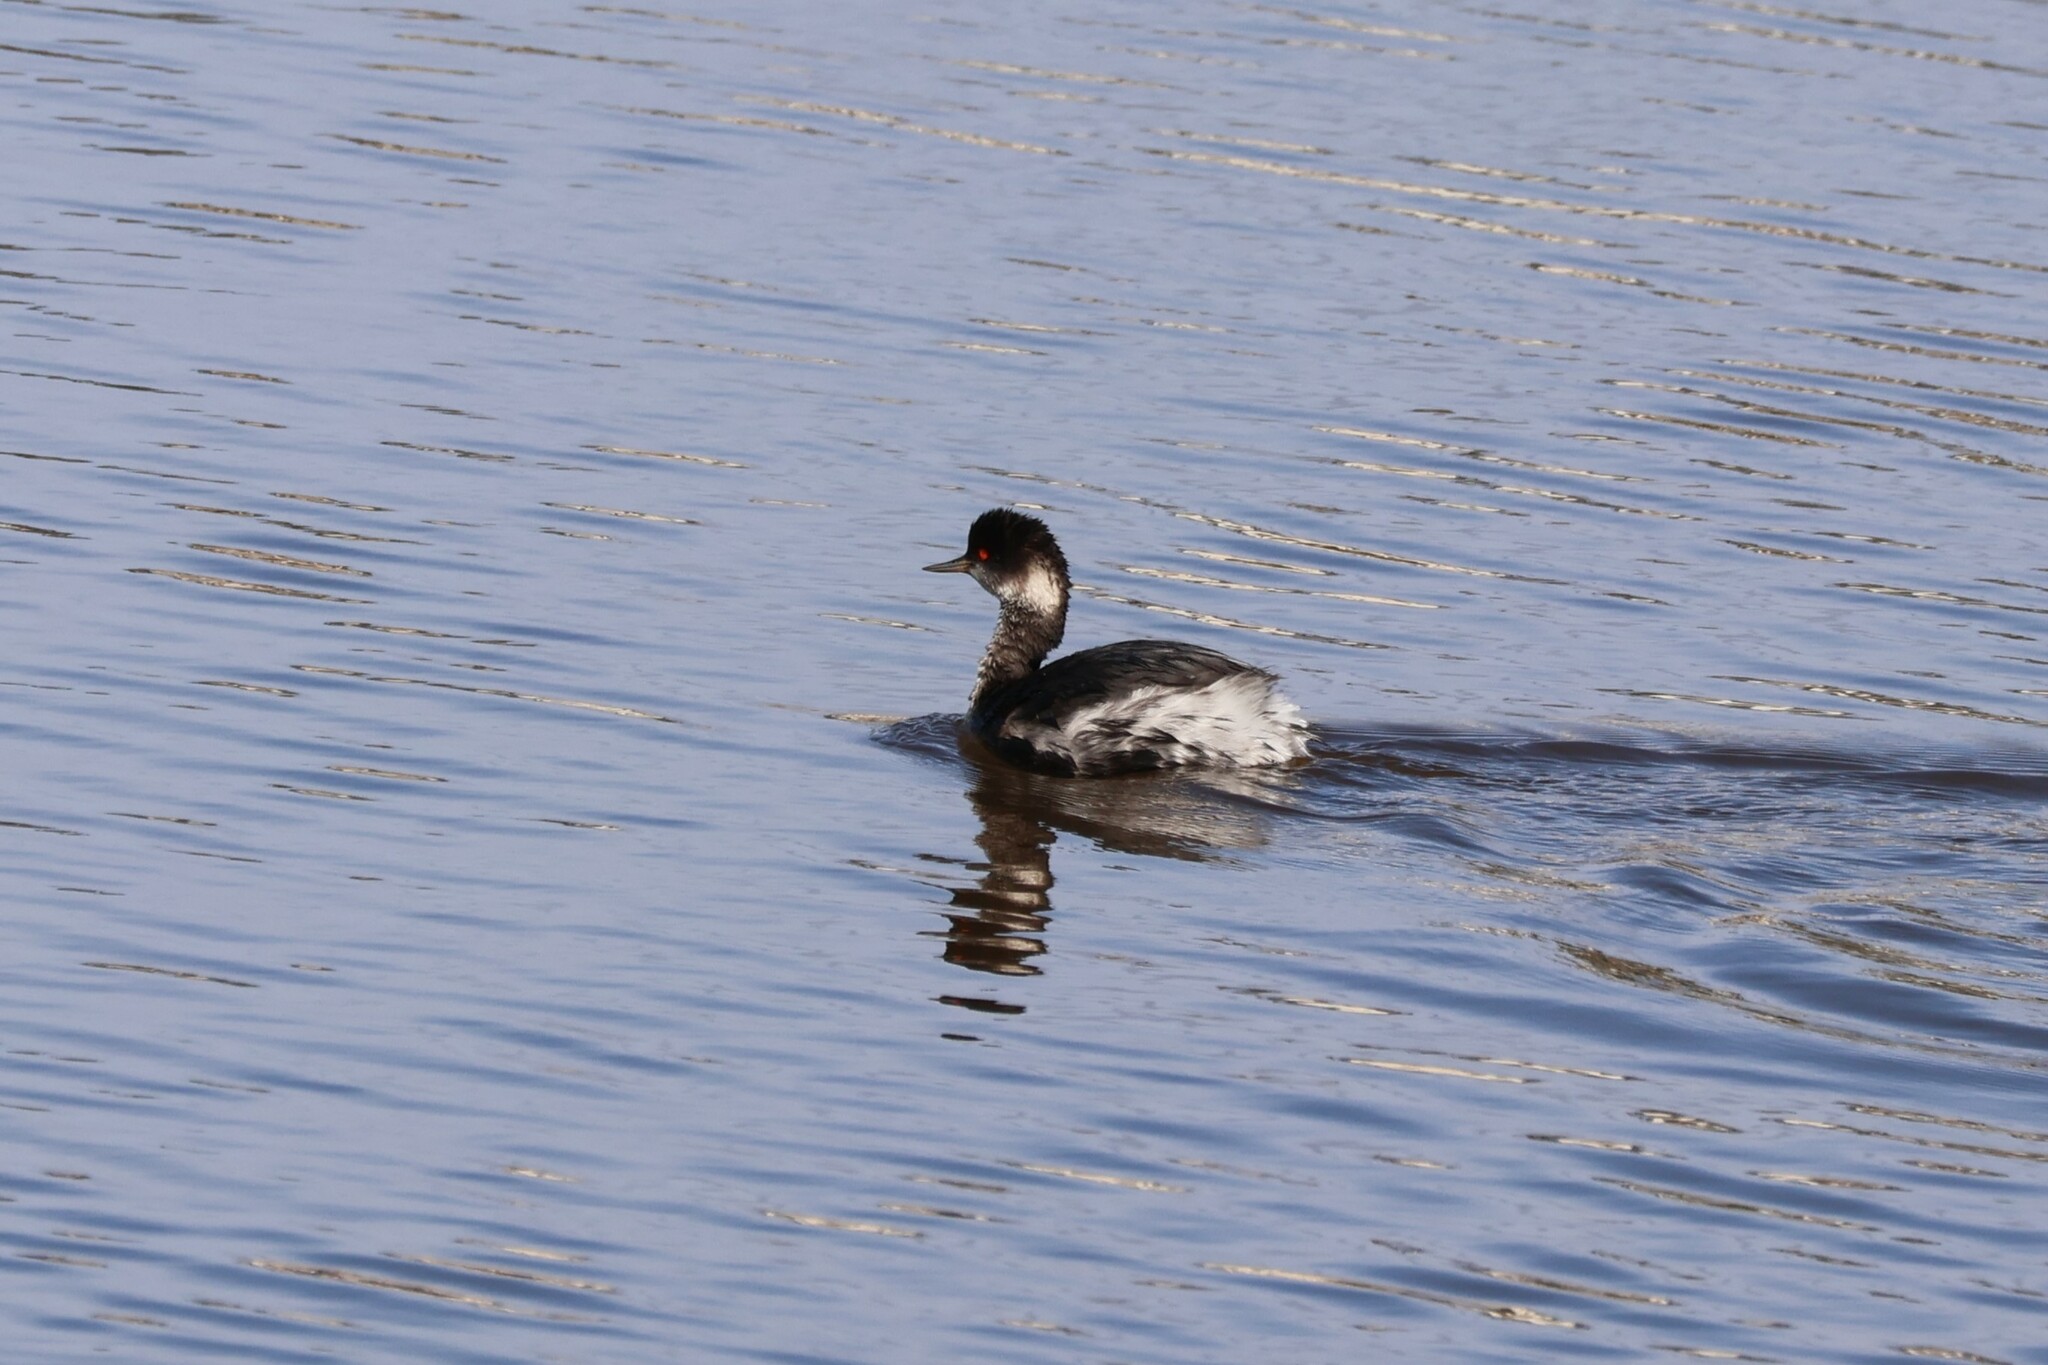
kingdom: Animalia
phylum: Chordata
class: Aves
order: Podicipediformes
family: Podicipedidae
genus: Podiceps
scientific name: Podiceps nigricollis
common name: Black-necked grebe
